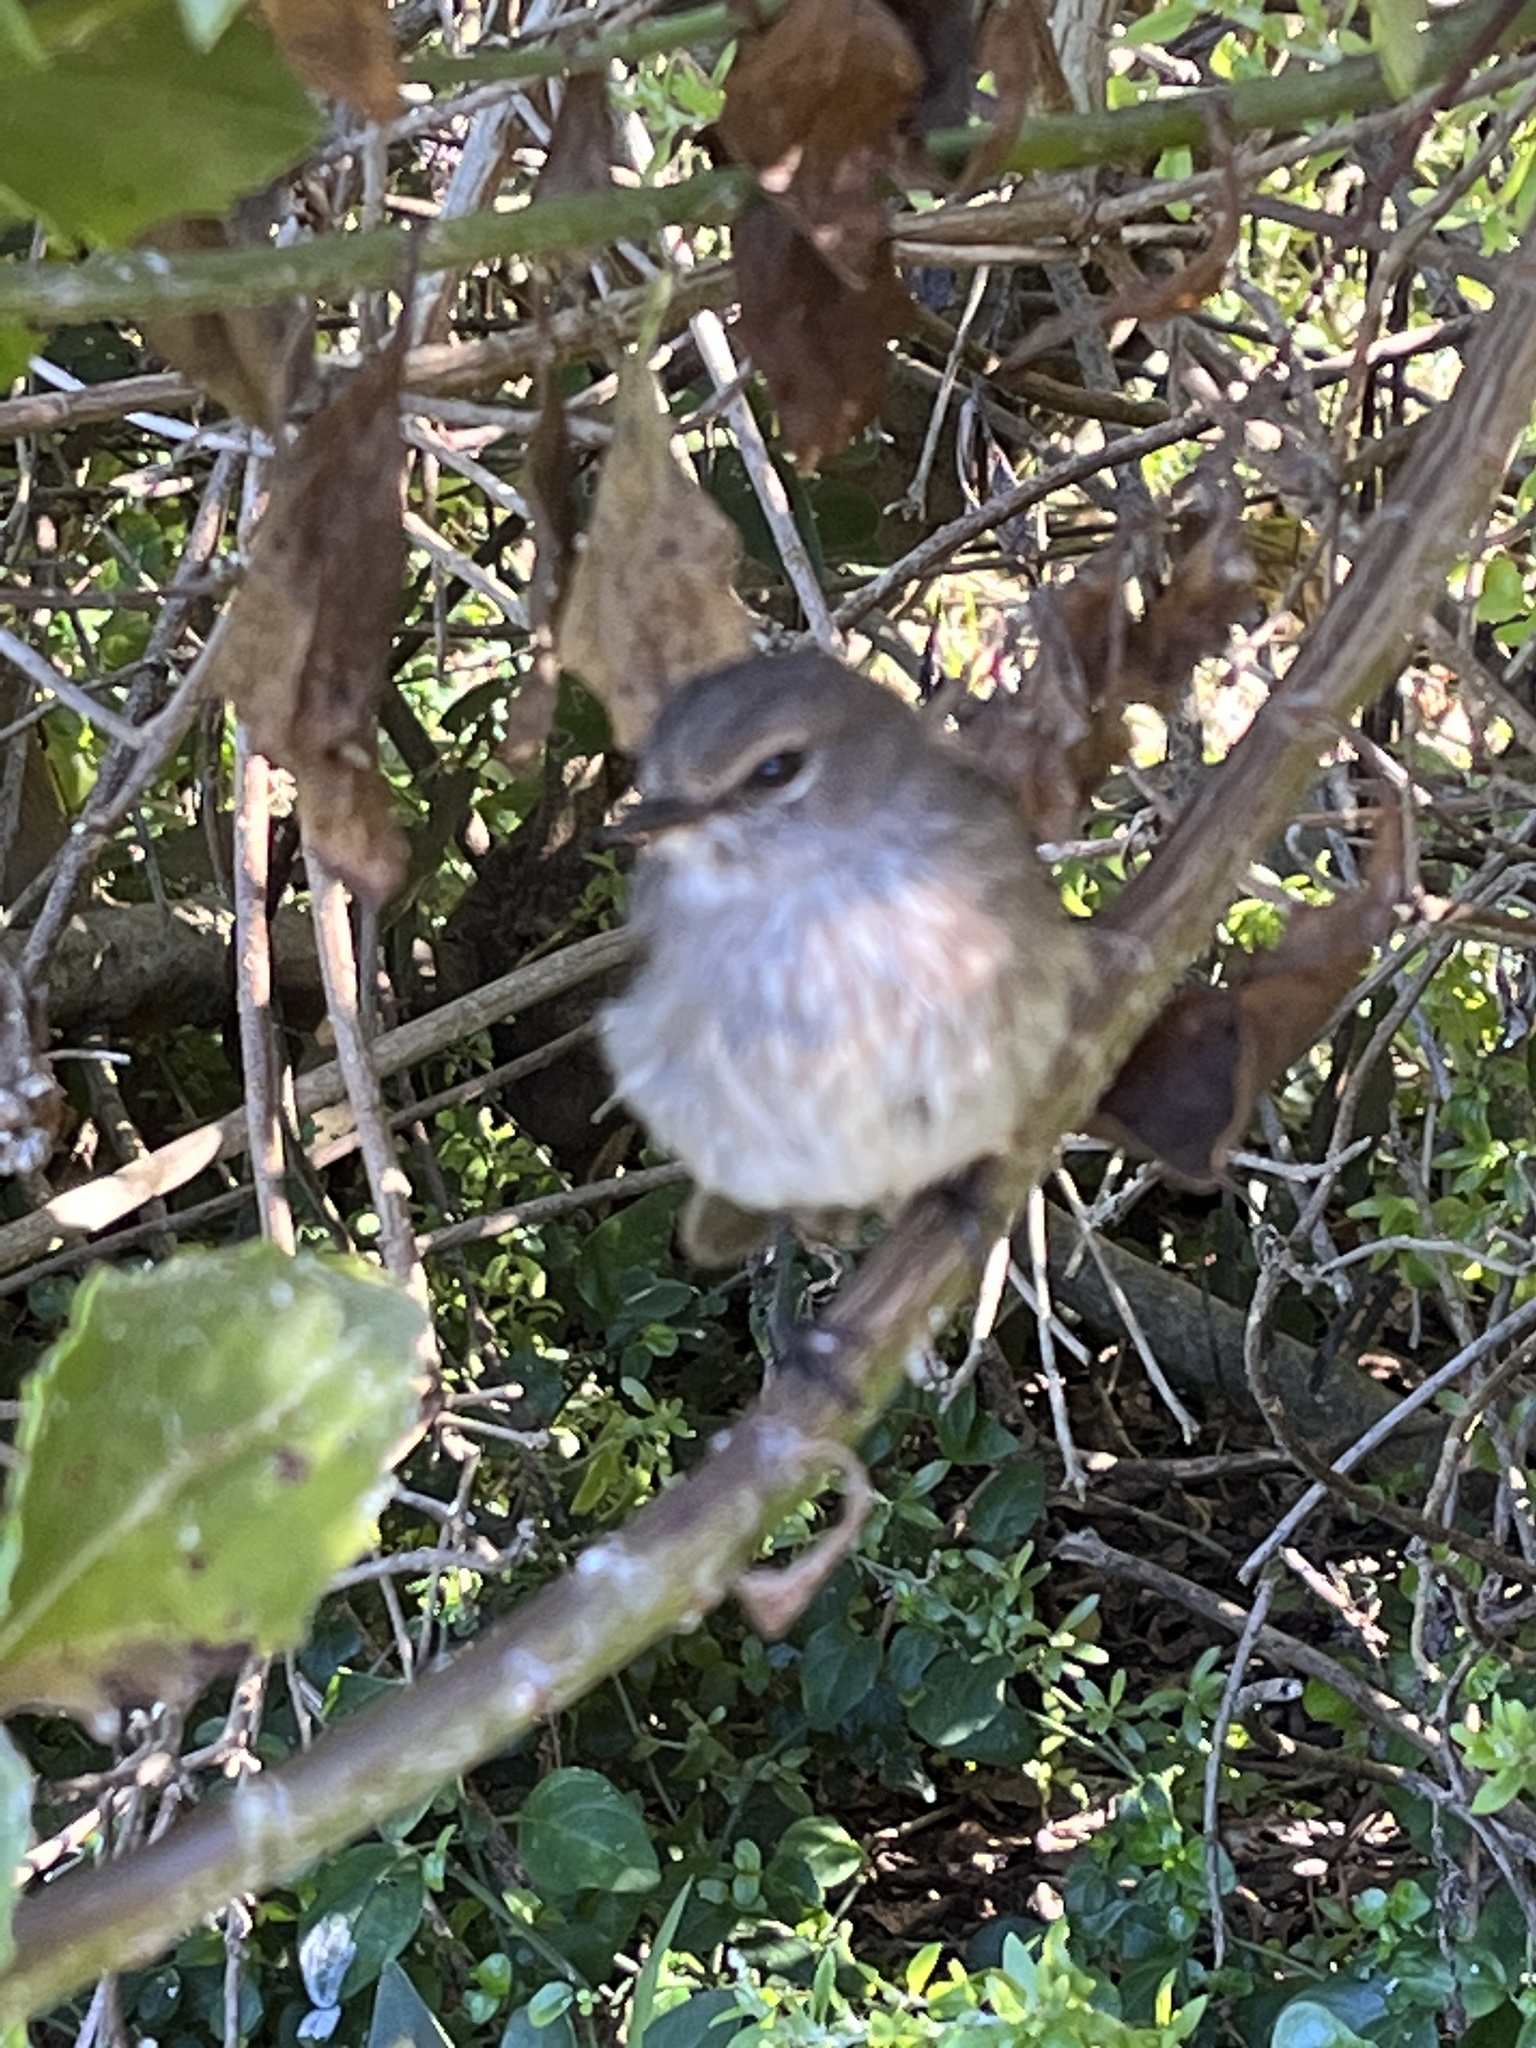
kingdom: Animalia
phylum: Chordata
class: Aves
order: Passeriformes
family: Muscicapidae
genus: Muscicapa
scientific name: Muscicapa adusta
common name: African dusky flycatcher
